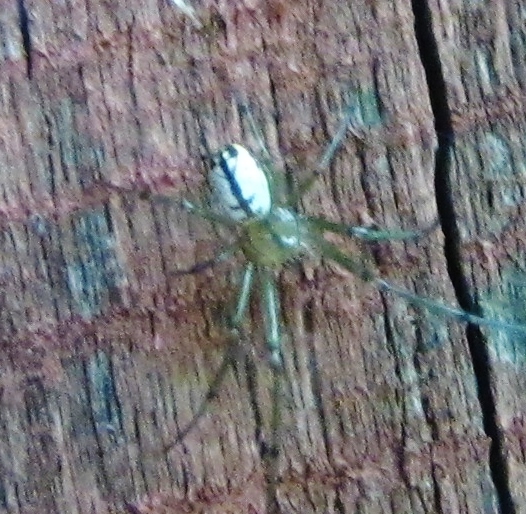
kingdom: Animalia
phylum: Arthropoda
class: Arachnida
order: Araneae
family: Tetragnathidae
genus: Leucauge
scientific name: Leucauge venusta
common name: Longjawed orb weavers
